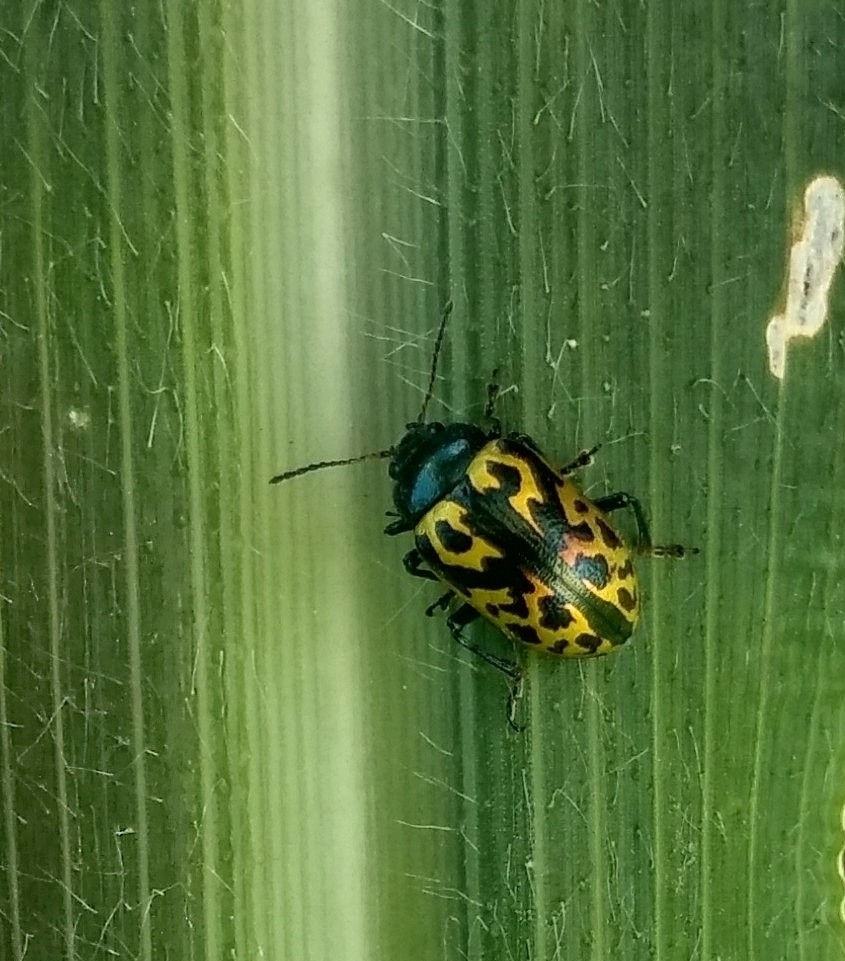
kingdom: Animalia
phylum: Arthropoda
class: Insecta
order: Coleoptera
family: Chrysomelidae
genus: Calligrapha
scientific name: Calligrapha
